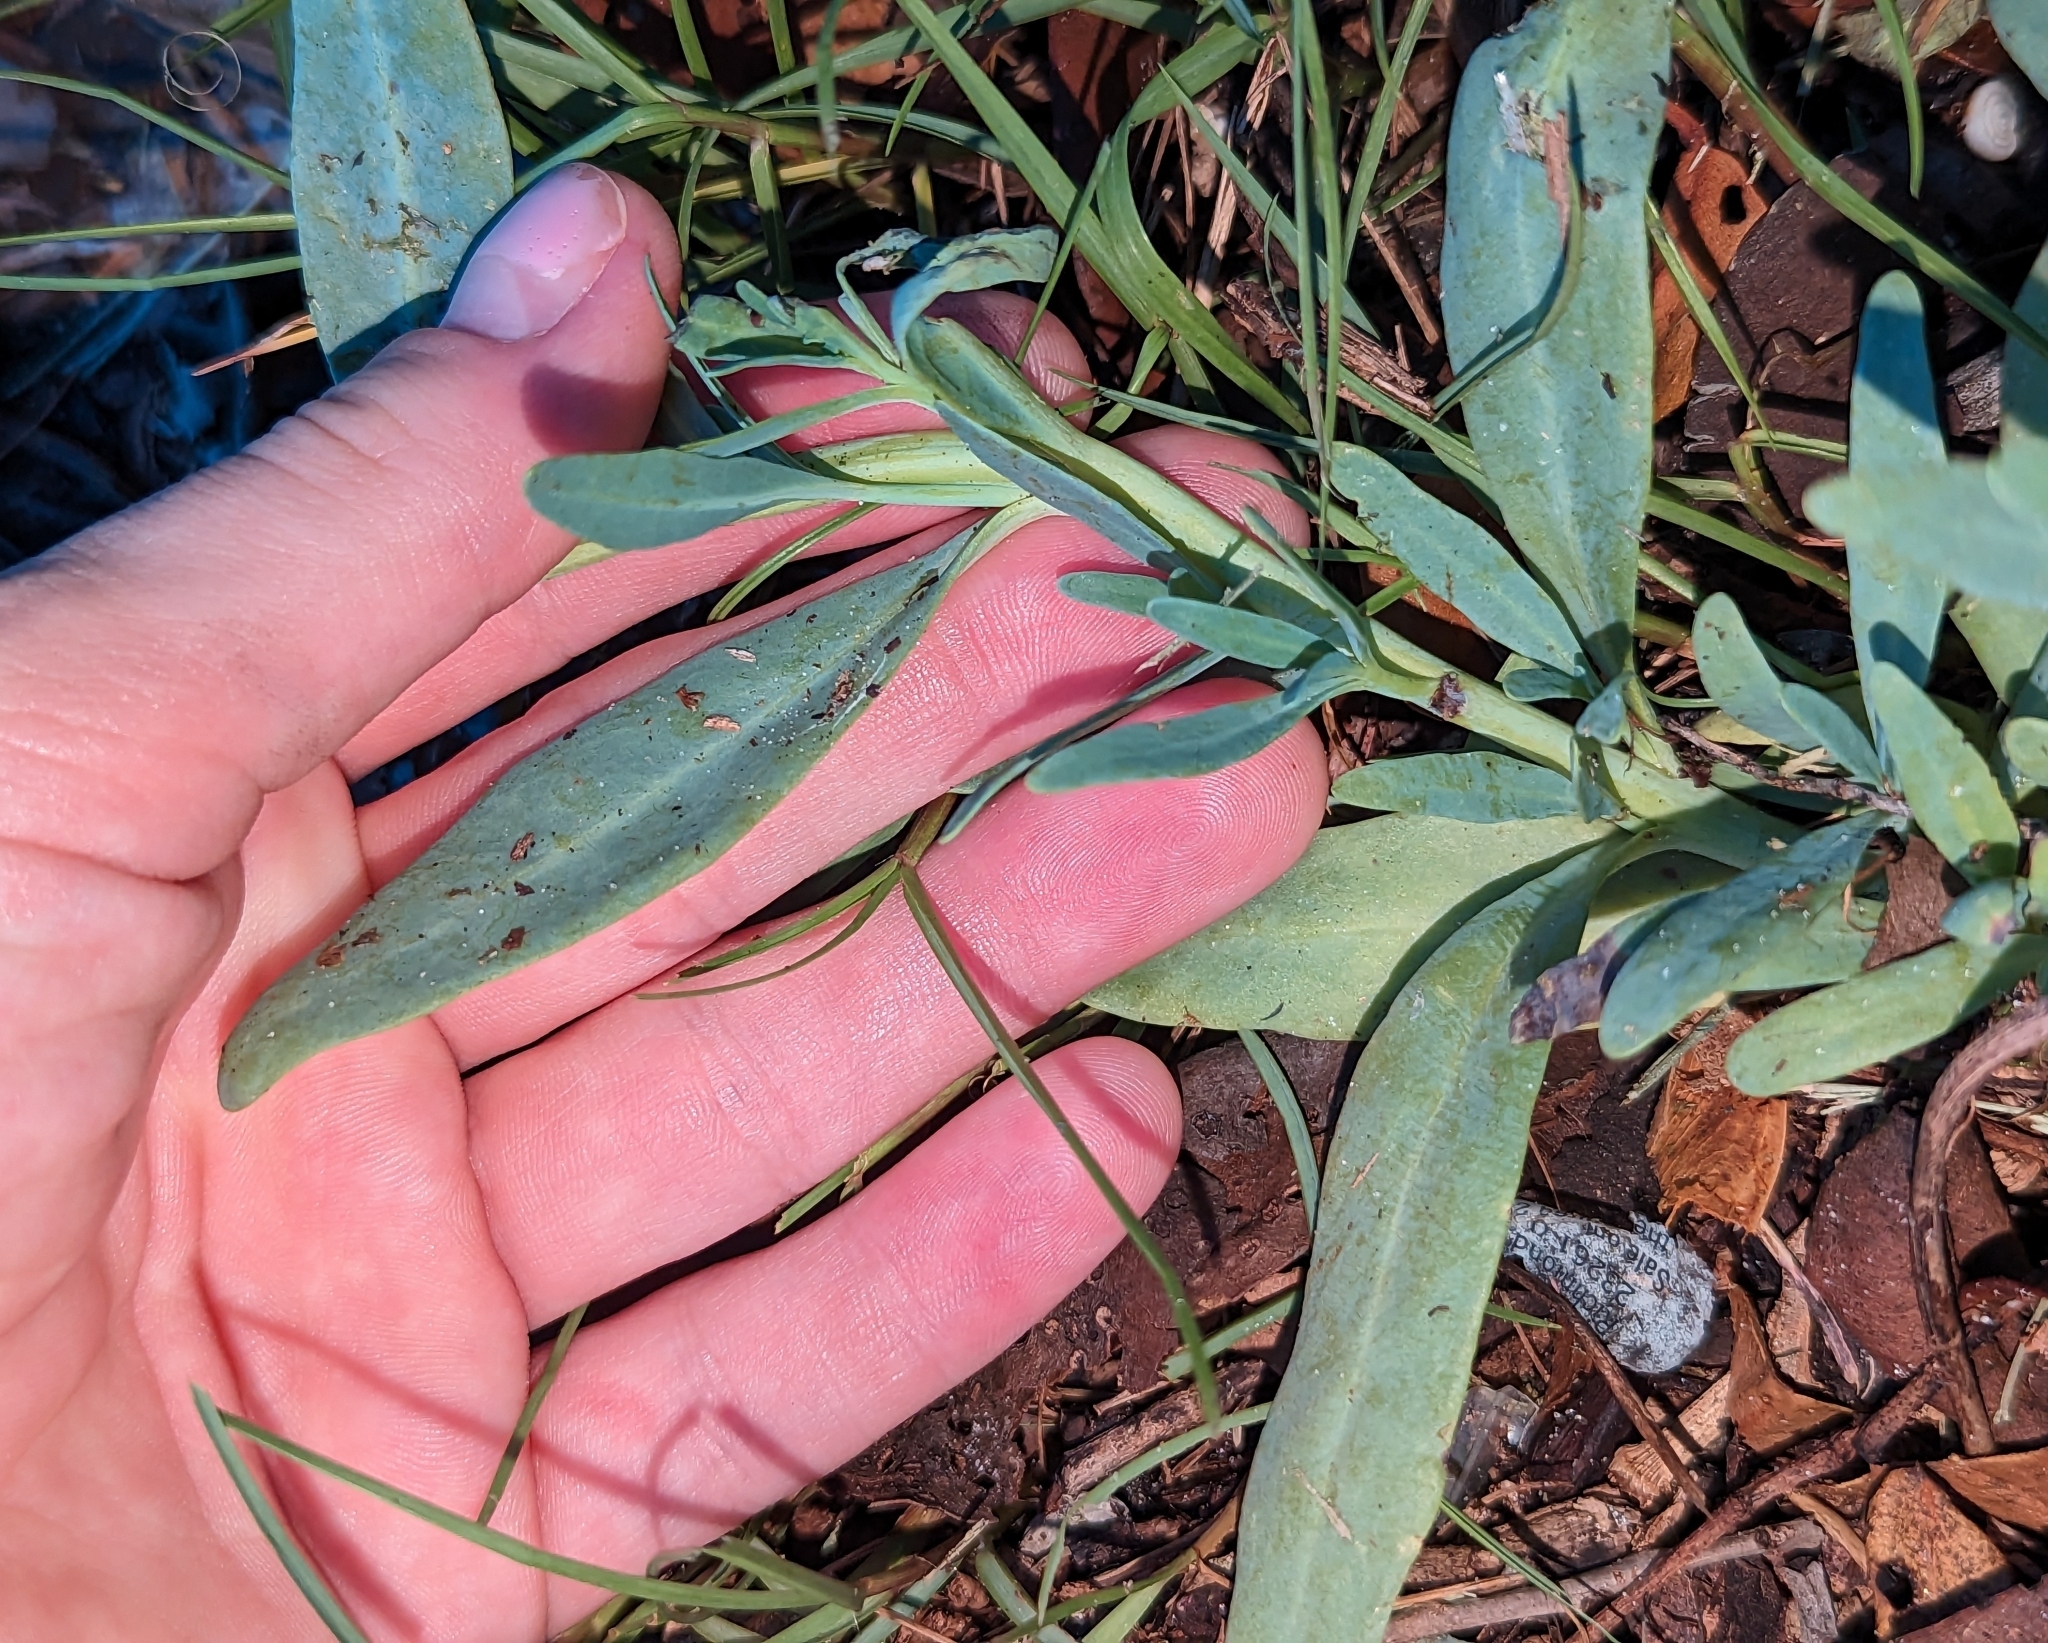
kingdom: Plantae
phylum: Tracheophyta
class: Magnoliopsida
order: Boraginales
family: Heliotropiaceae
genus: Heliotropium
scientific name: Heliotropium curassavicum
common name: Seaside heliotrope
